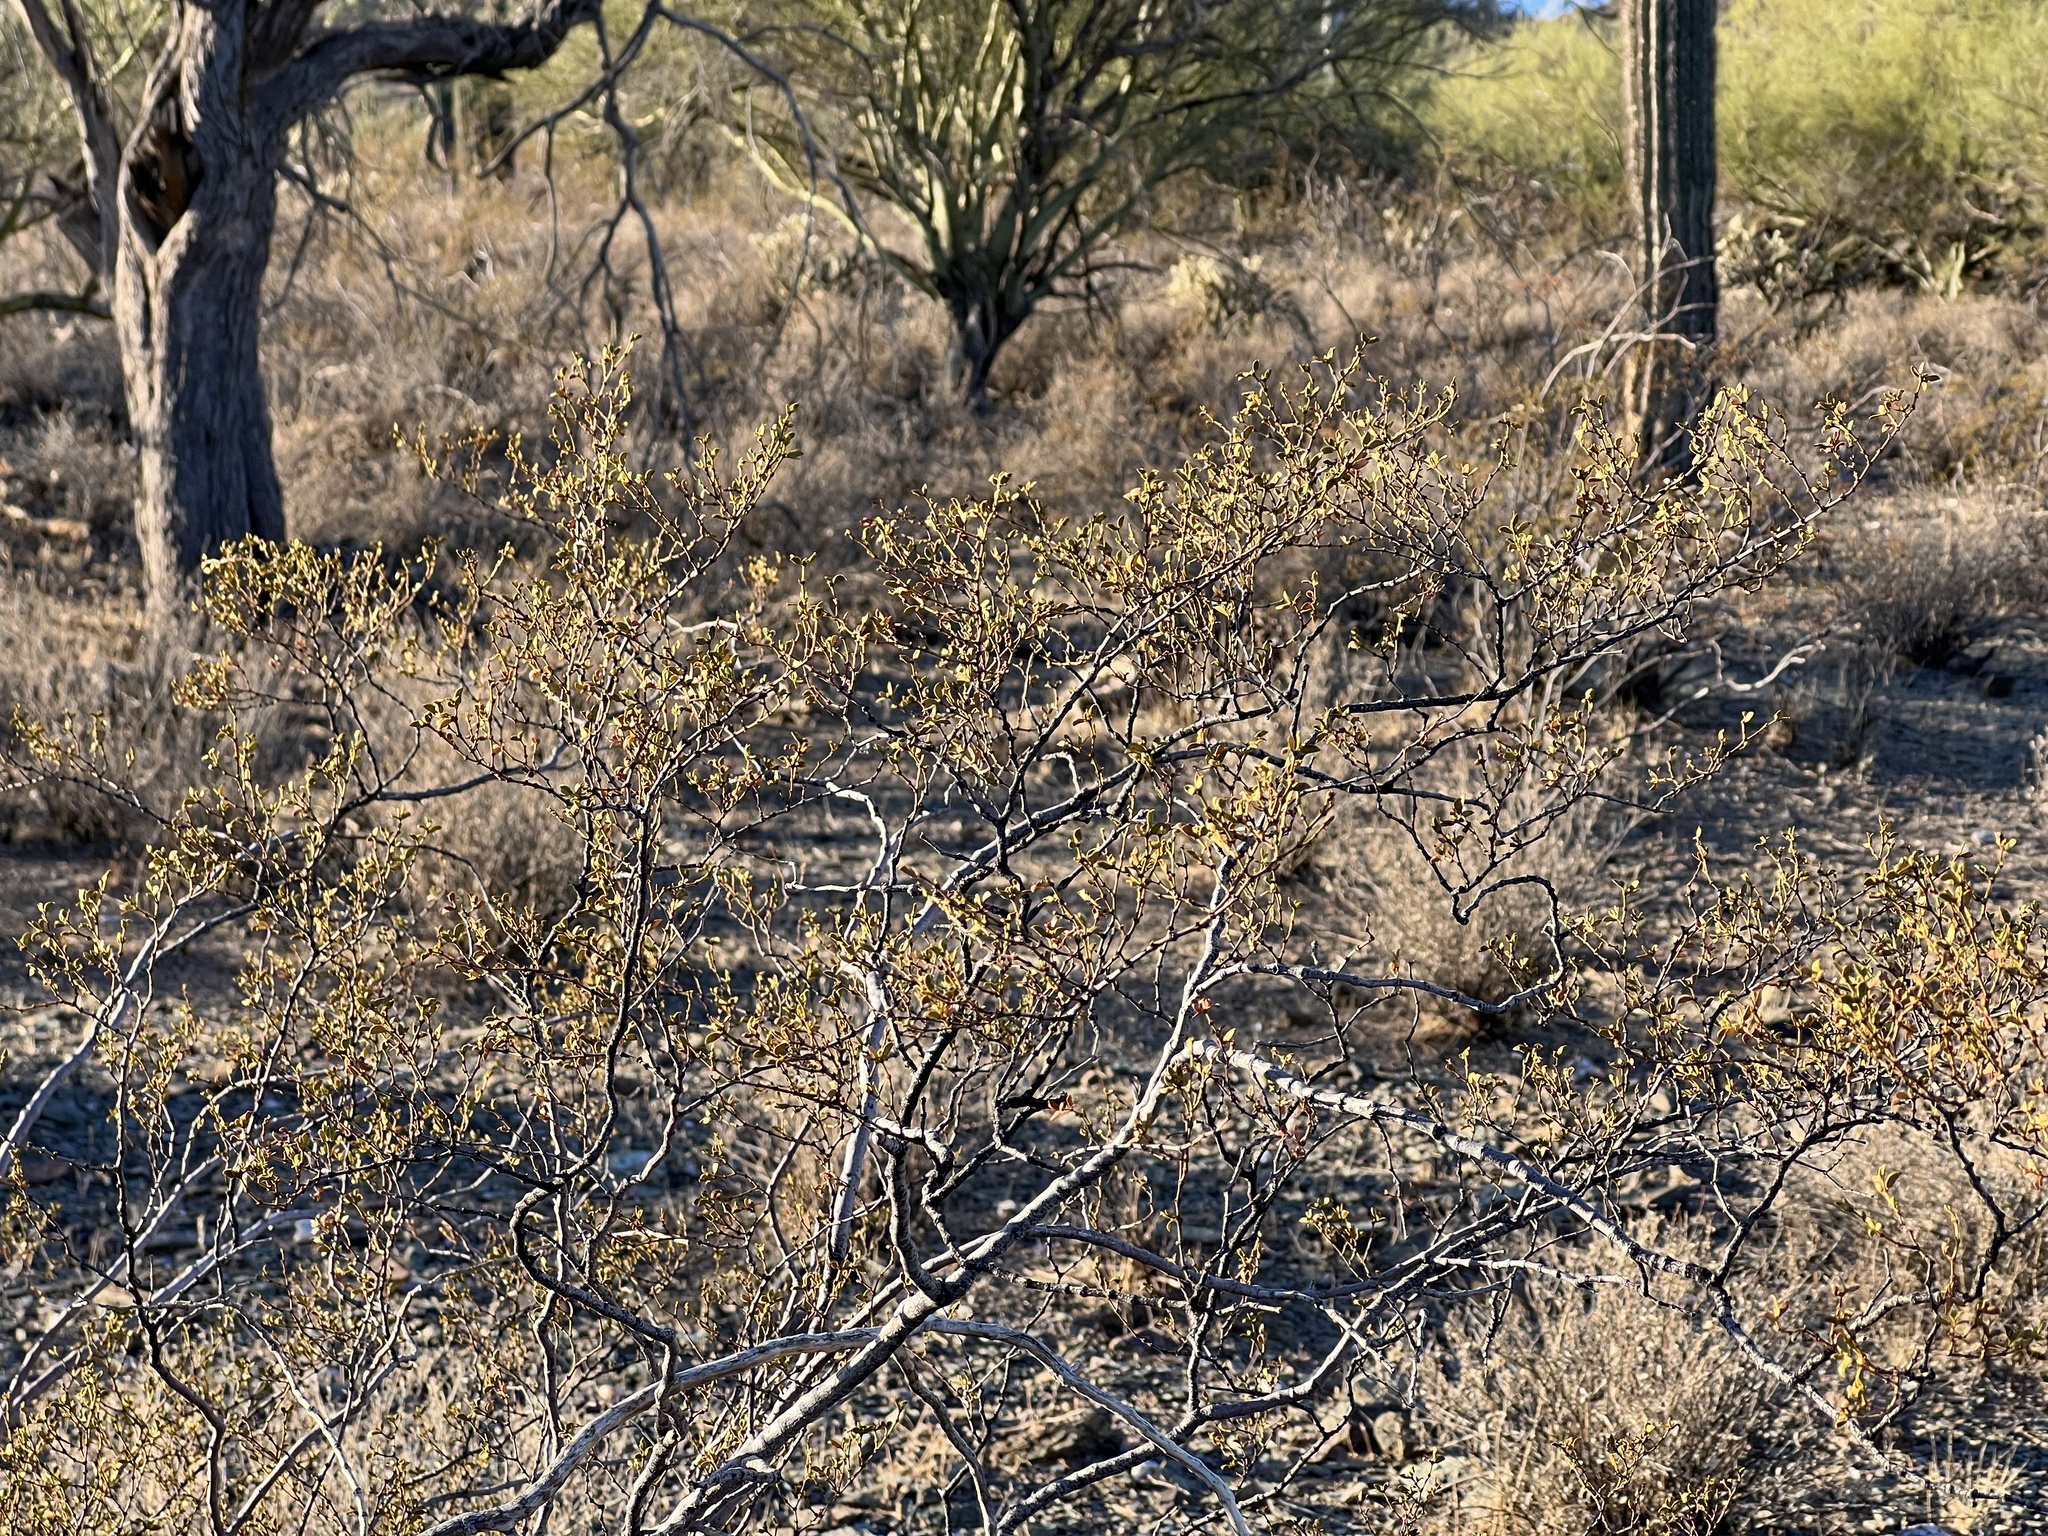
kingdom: Plantae
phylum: Tracheophyta
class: Magnoliopsida
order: Zygophyllales
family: Zygophyllaceae
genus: Larrea
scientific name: Larrea tridentata
